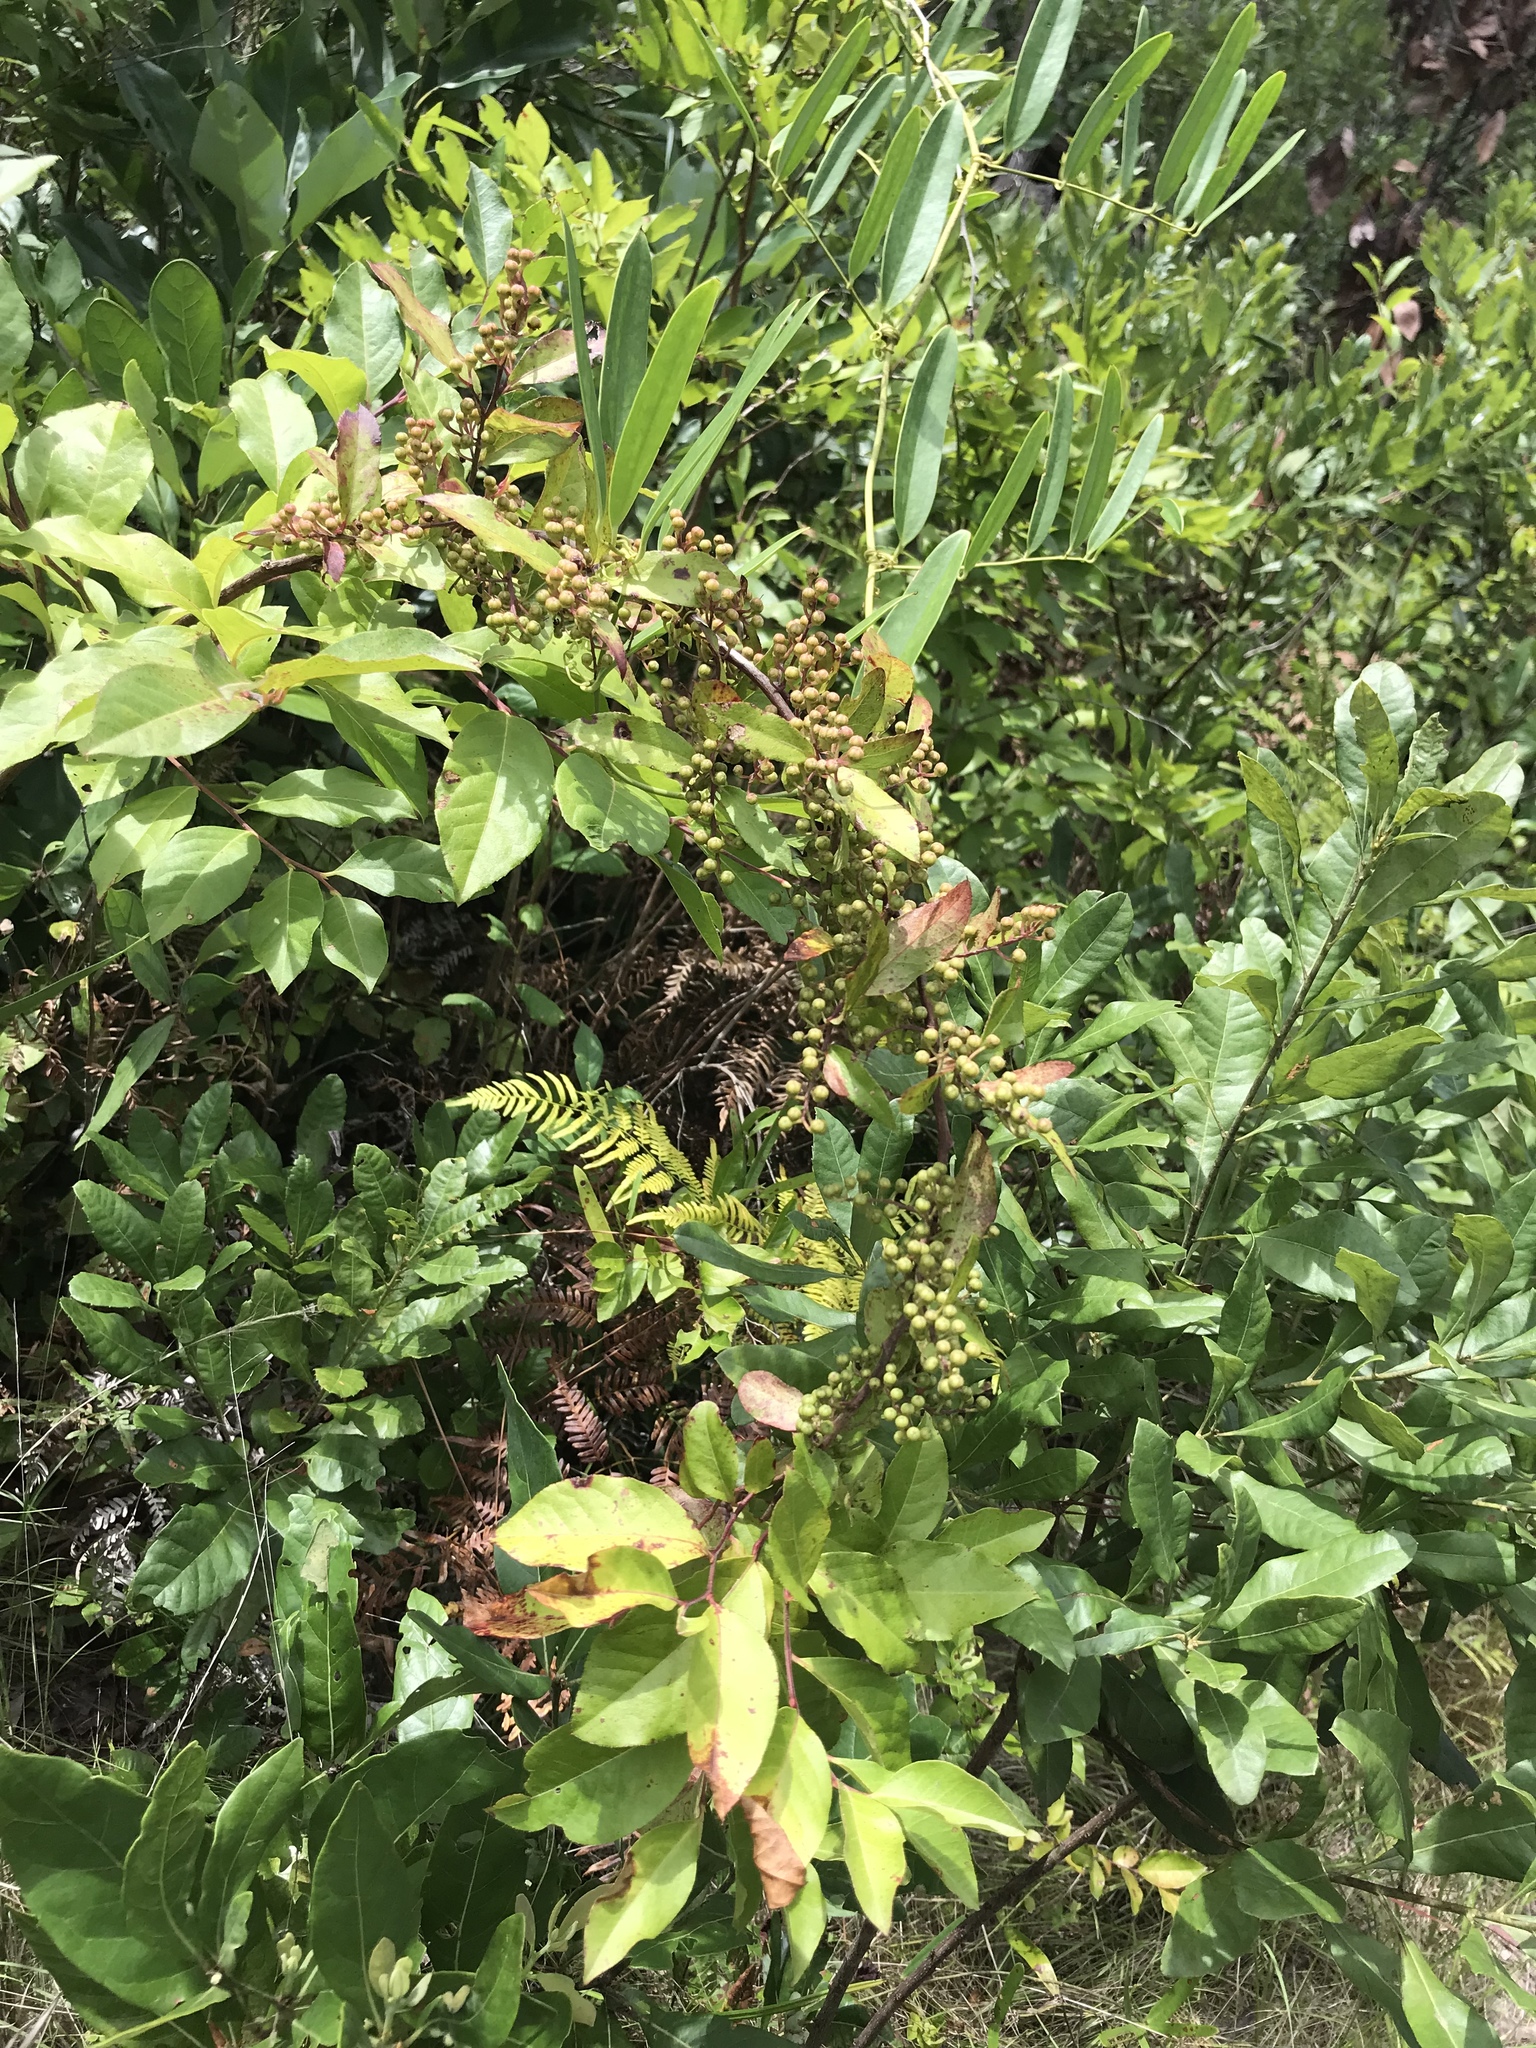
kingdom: Plantae
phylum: Tracheophyta
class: Magnoliopsida
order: Ericales
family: Ericaceae
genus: Lyonia
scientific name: Lyonia ligustrina
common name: Maleberry
